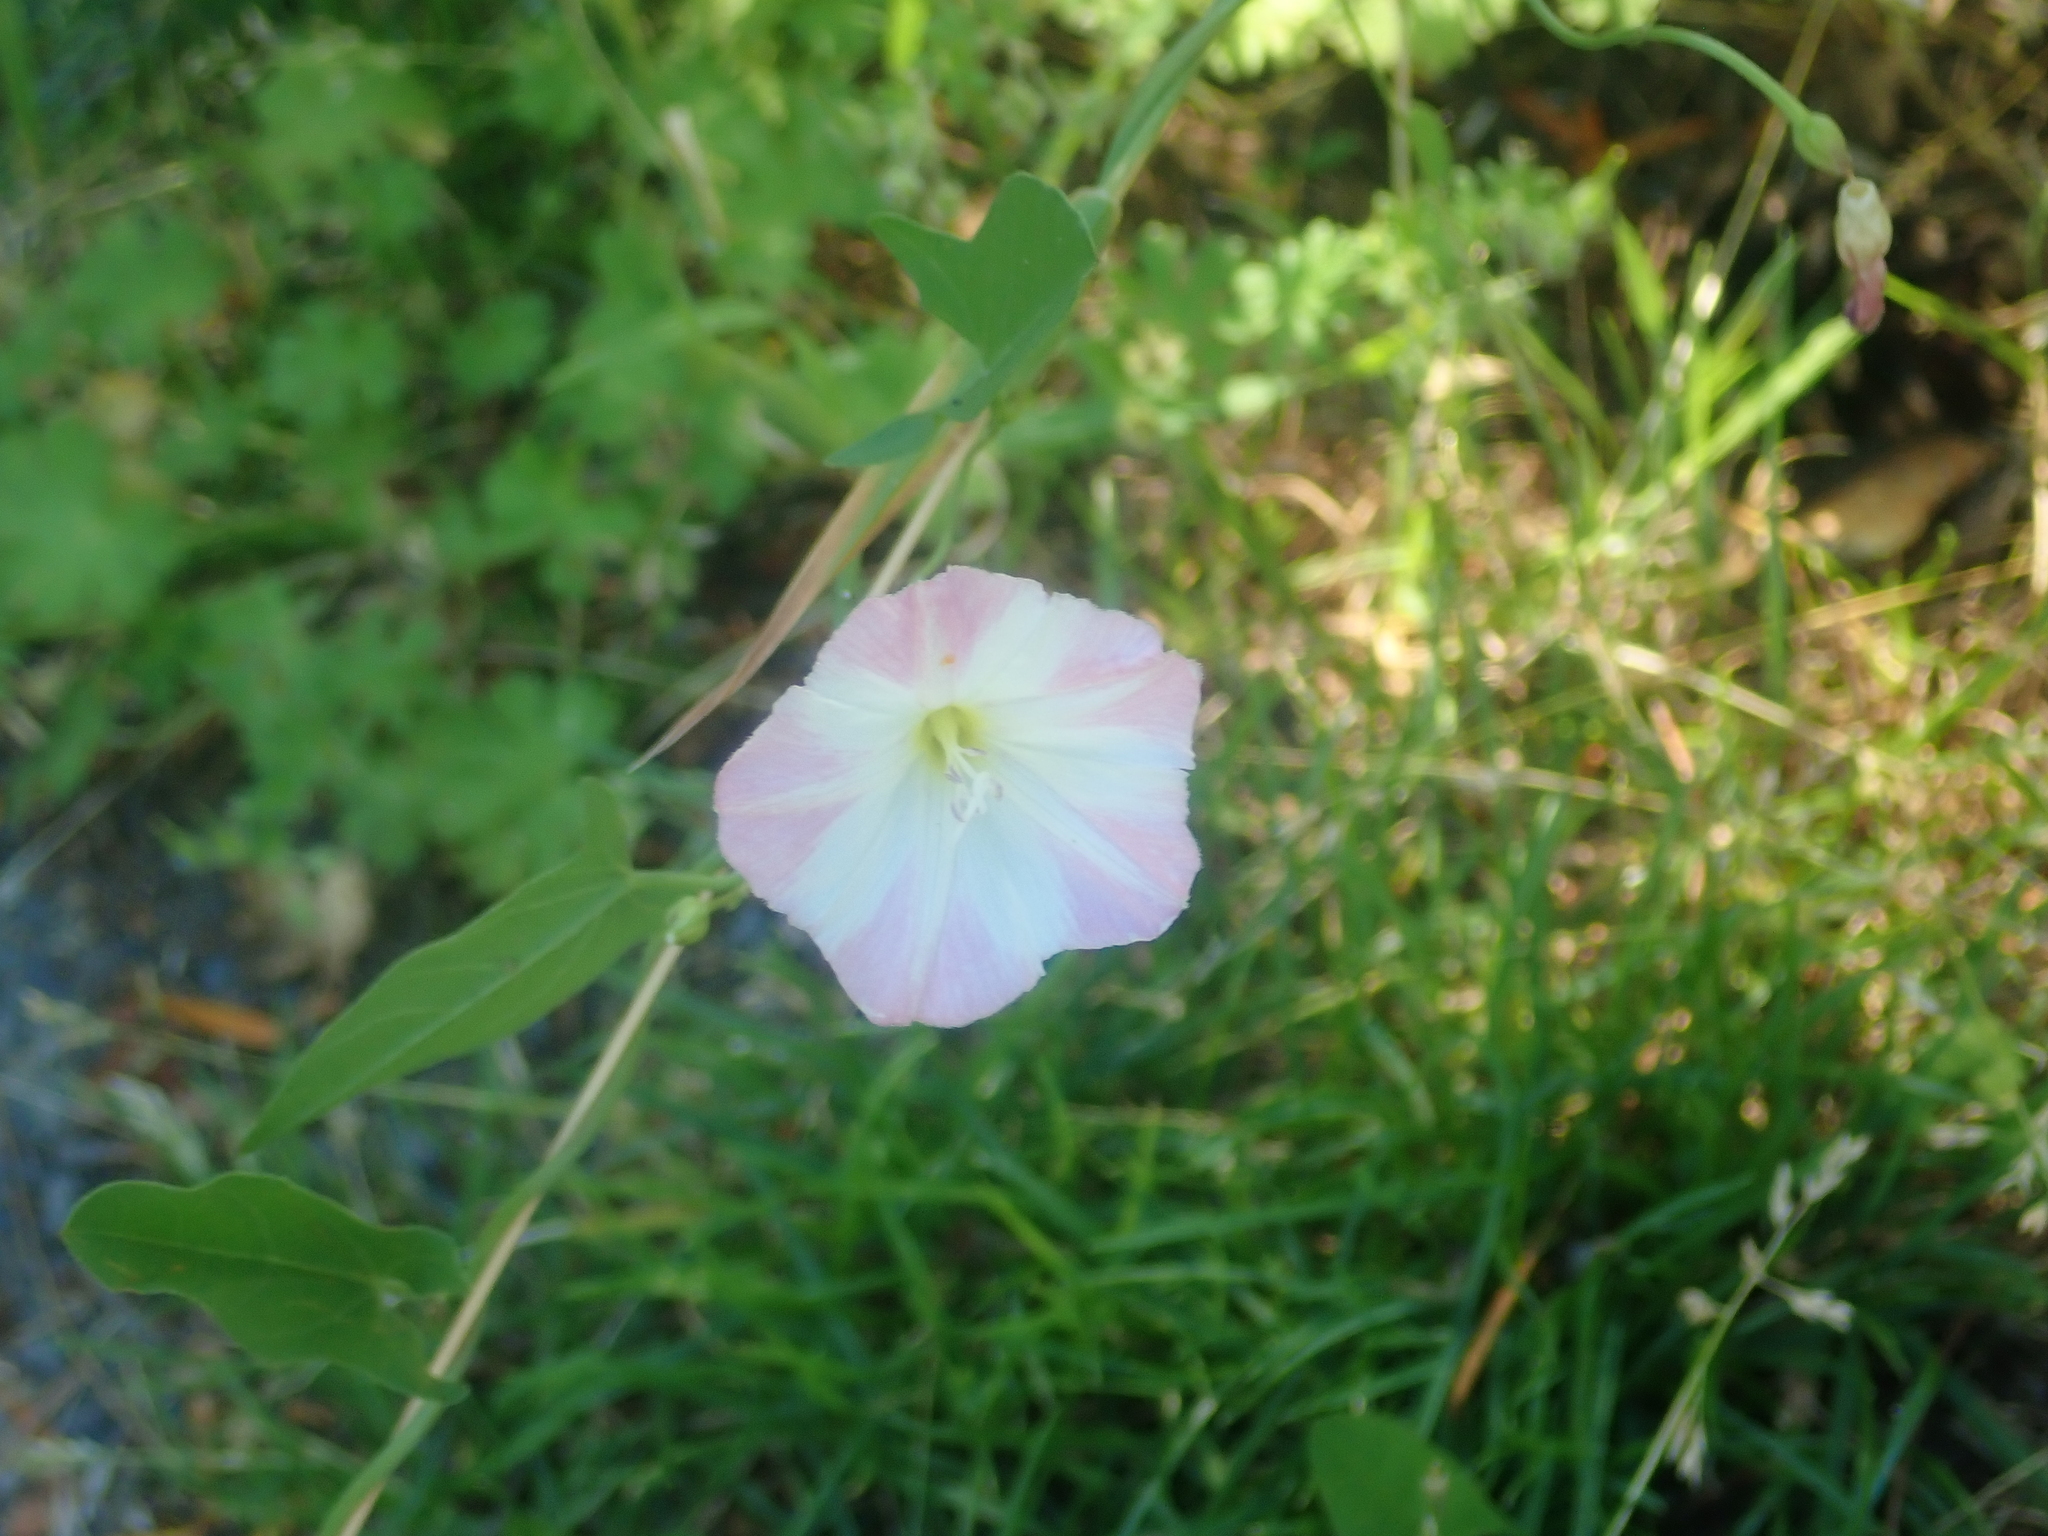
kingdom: Plantae
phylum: Tracheophyta
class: Magnoliopsida
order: Solanales
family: Convolvulaceae
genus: Convolvulus
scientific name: Convolvulus arvensis
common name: Field bindweed
